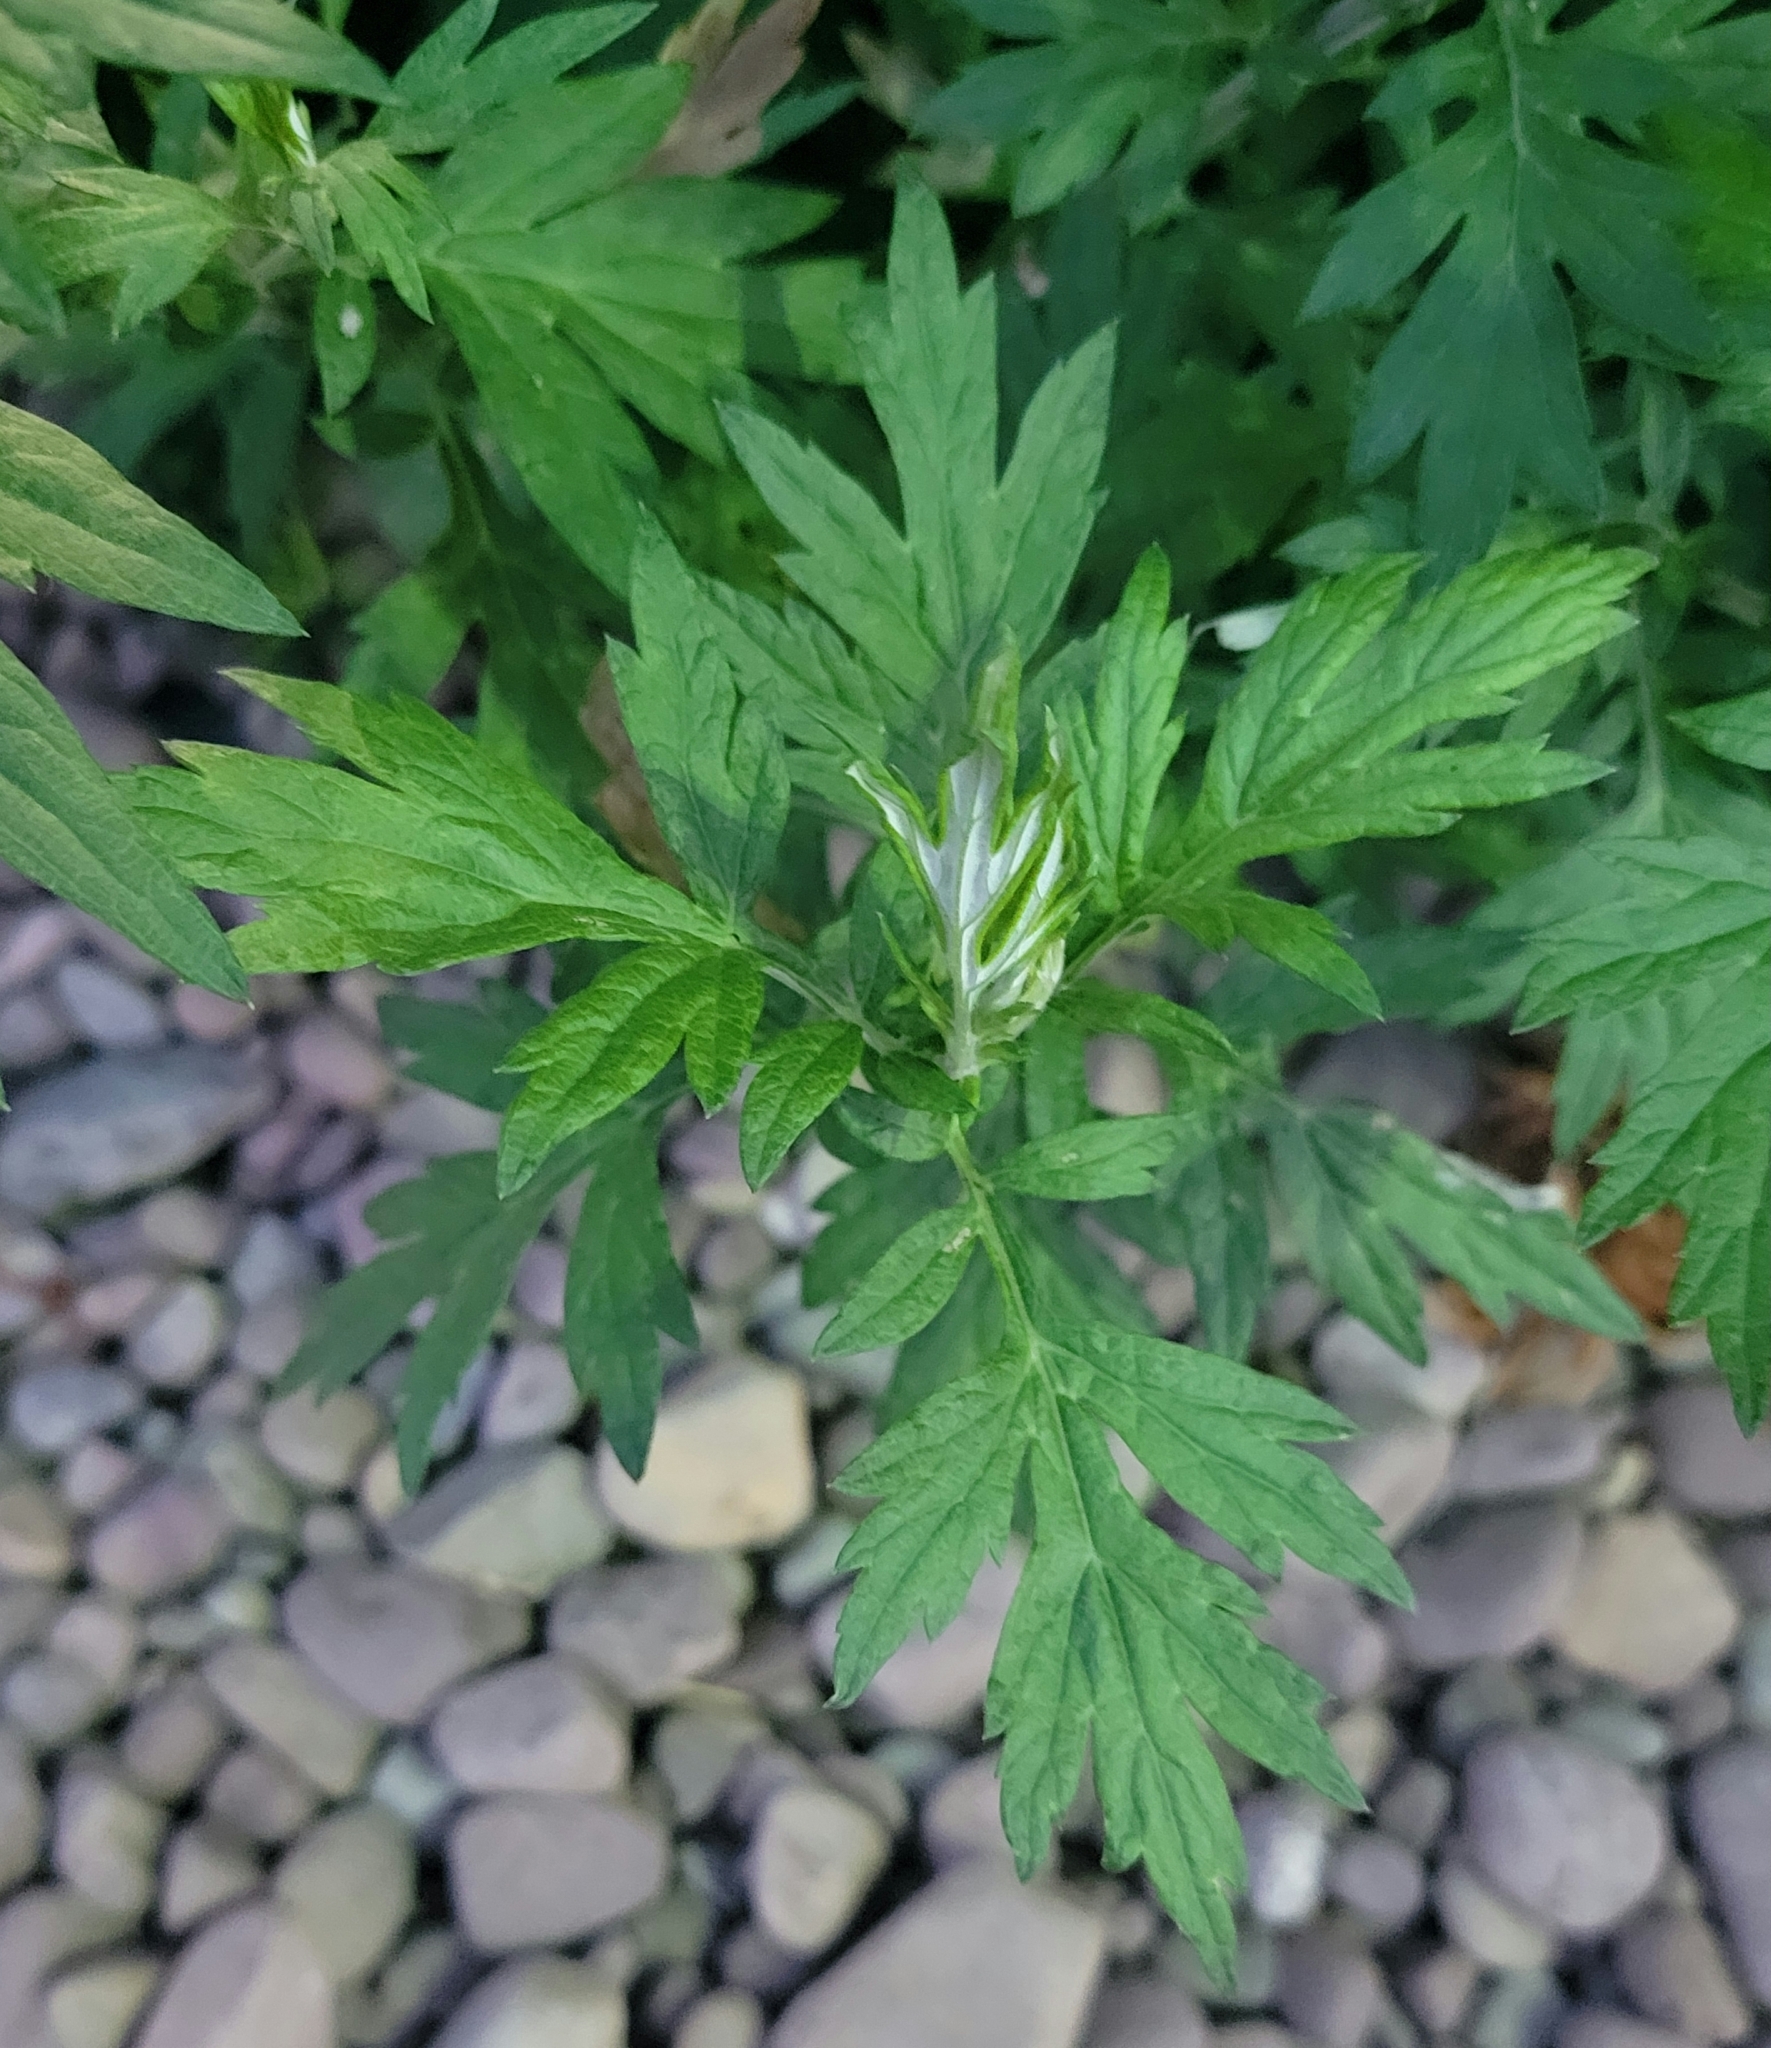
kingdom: Plantae
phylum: Tracheophyta
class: Magnoliopsida
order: Asterales
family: Asteraceae
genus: Artemisia
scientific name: Artemisia vulgaris
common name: Mugwort
